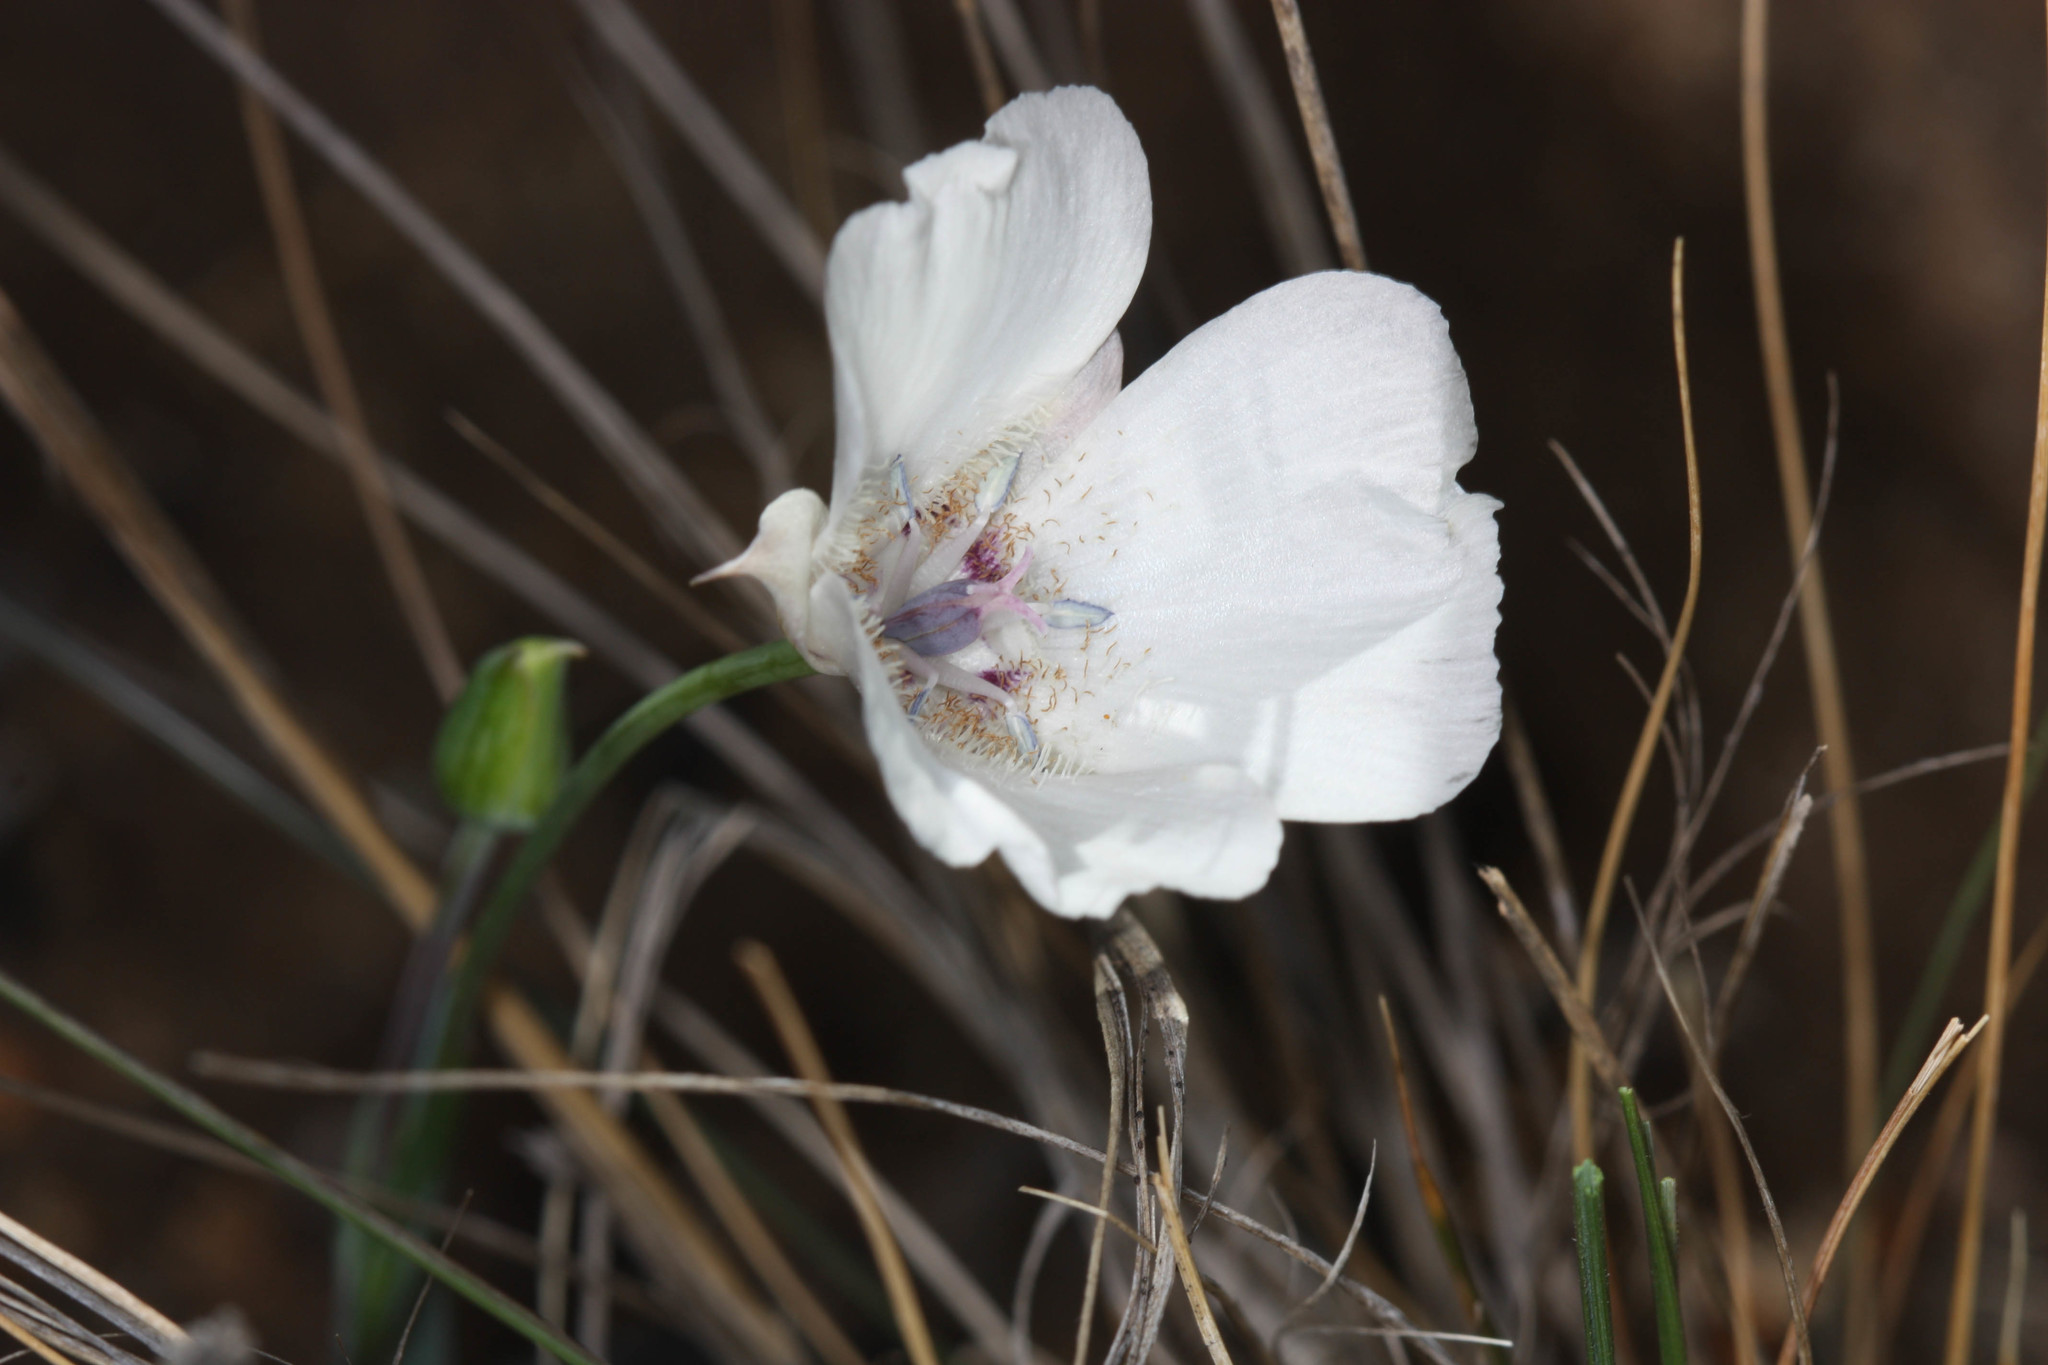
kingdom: Plantae
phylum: Tracheophyta
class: Liliopsida
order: Liliales
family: Liliaceae
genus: Calochortus
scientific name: Calochortus umbellatus
